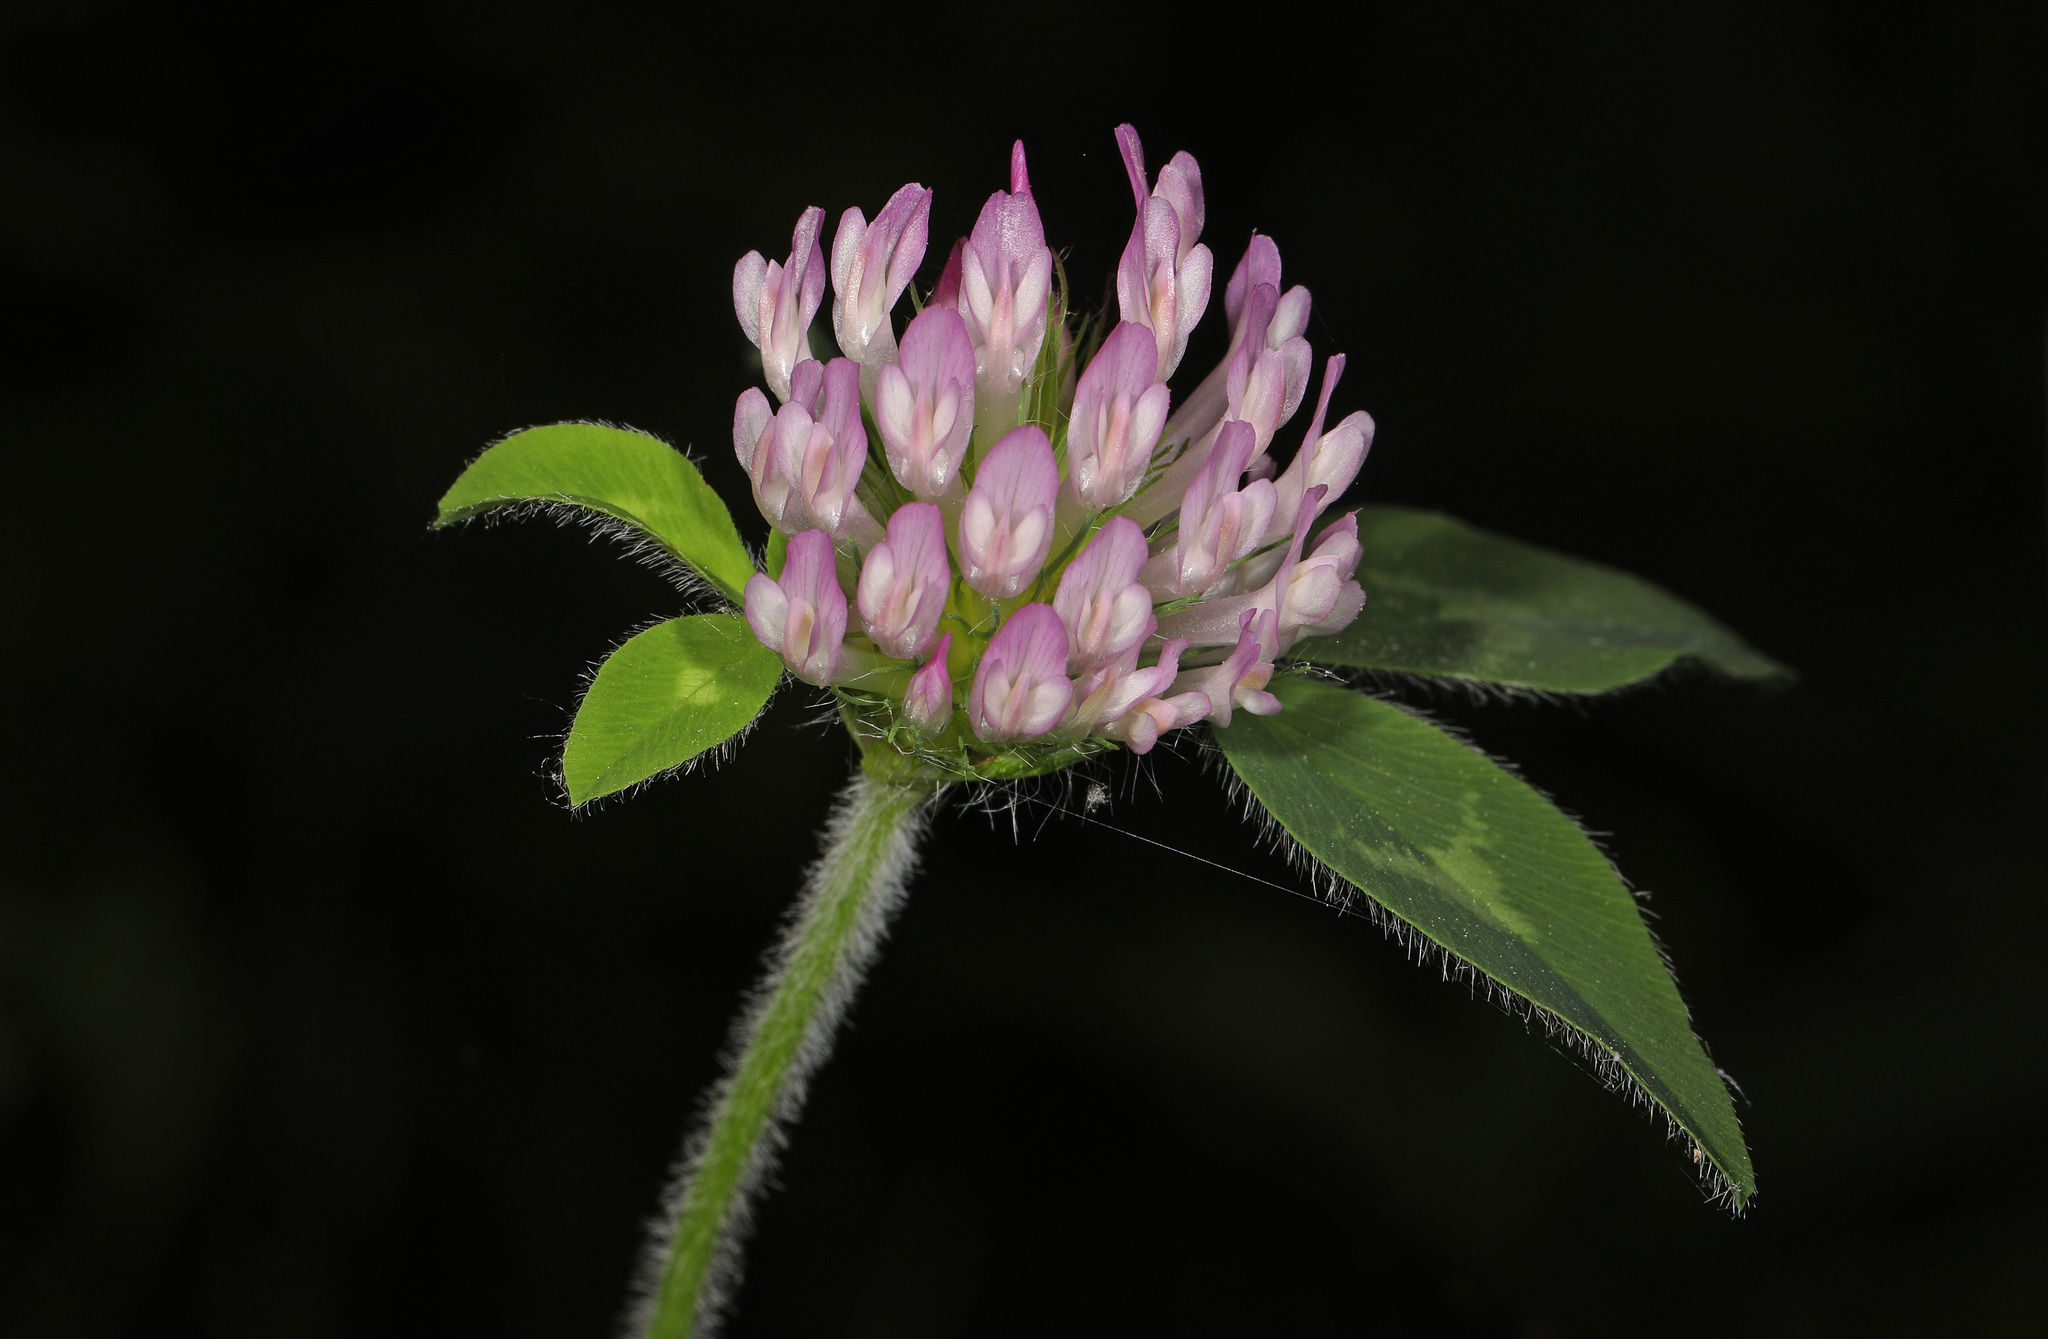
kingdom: Plantae
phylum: Tracheophyta
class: Magnoliopsida
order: Fabales
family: Fabaceae
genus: Trifolium
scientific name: Trifolium pratense
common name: Red clover
